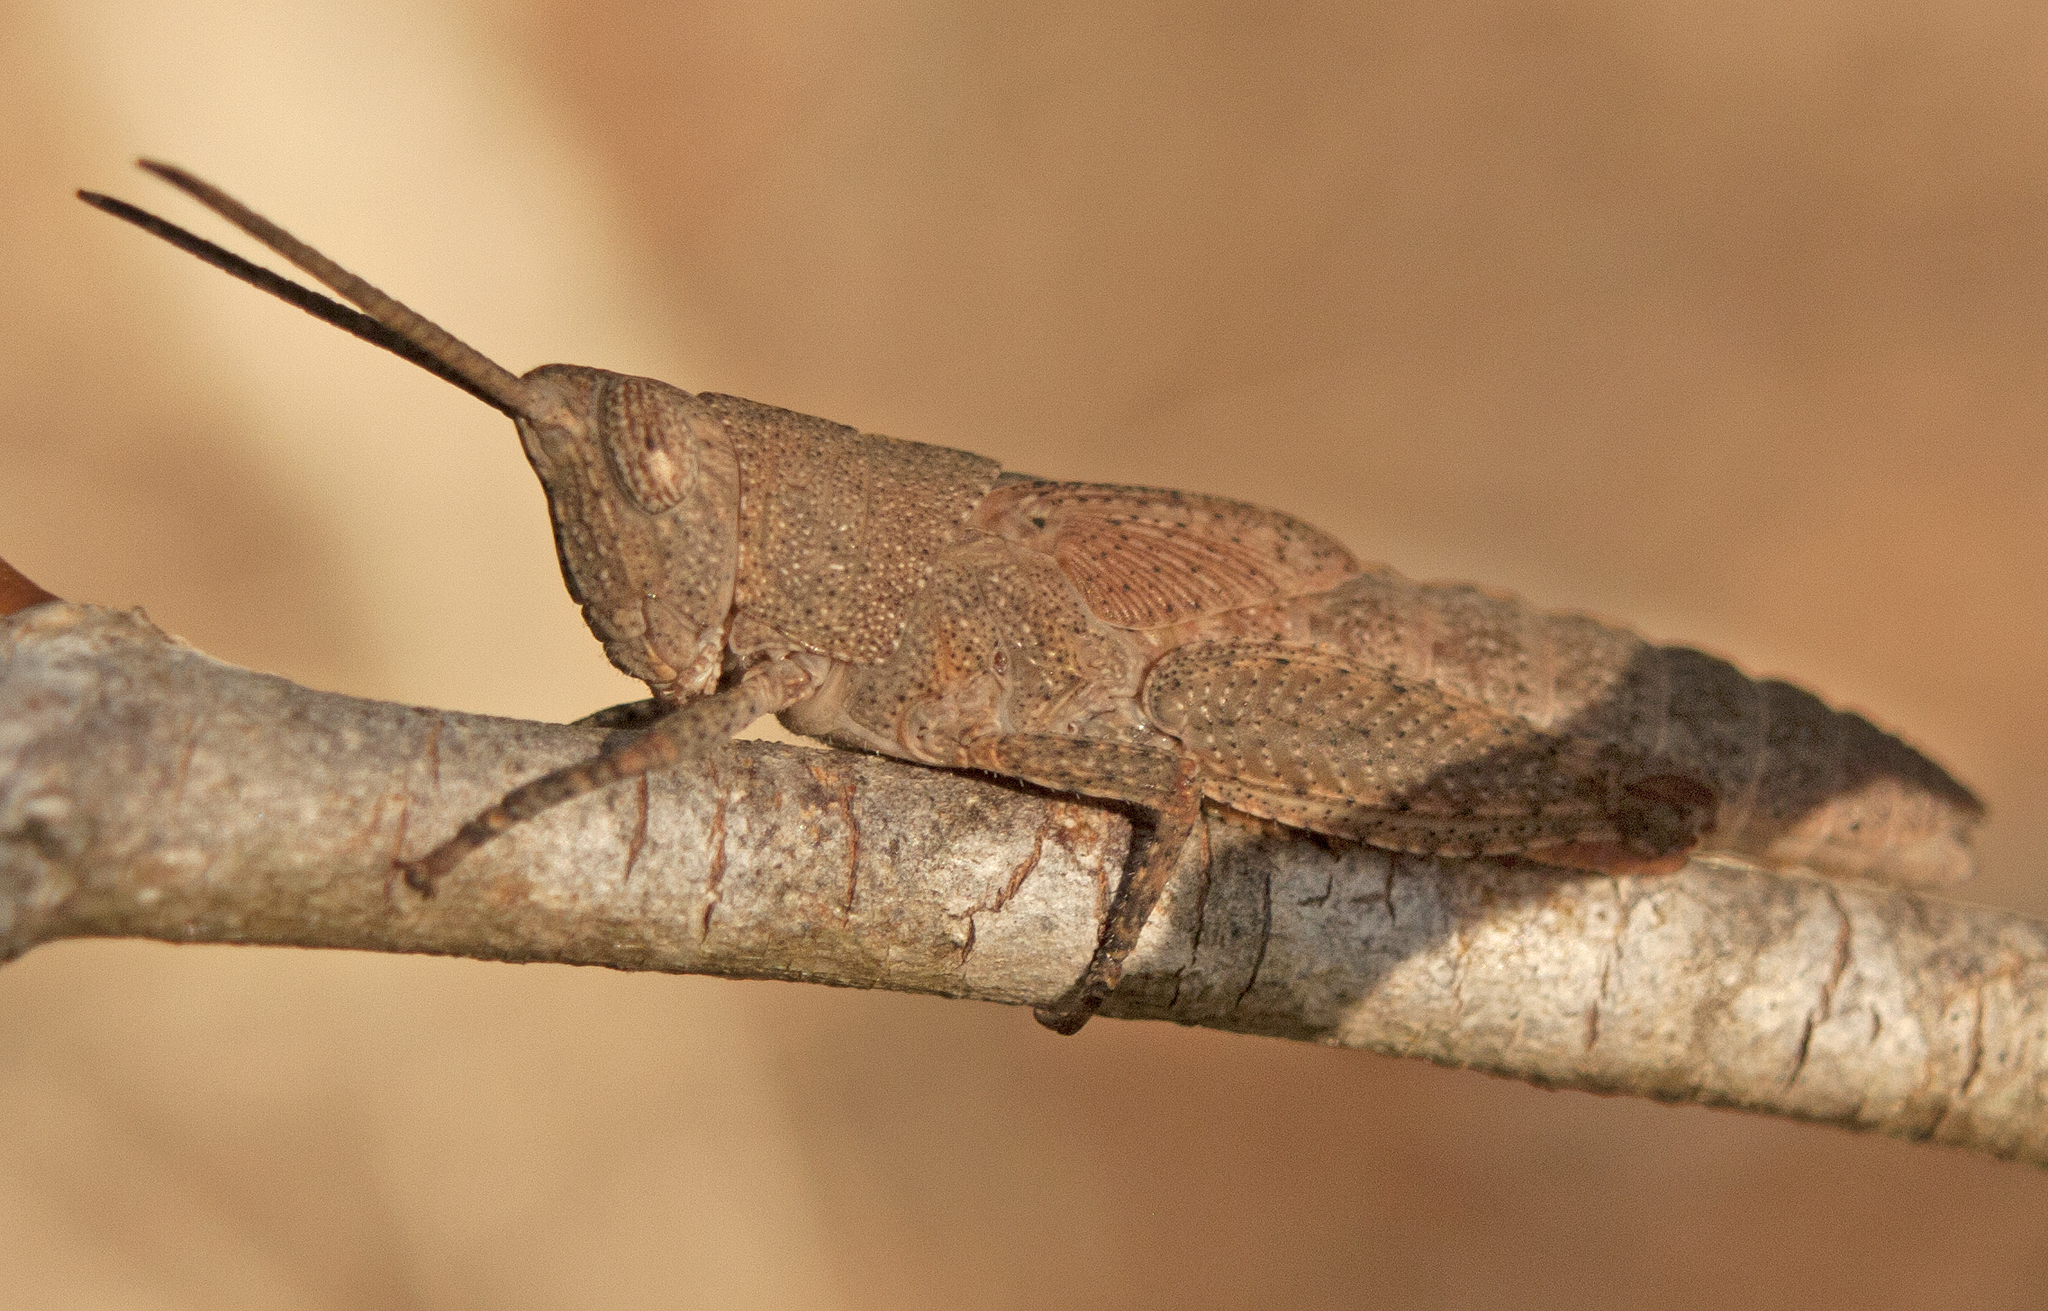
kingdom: Animalia
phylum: Arthropoda
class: Insecta
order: Orthoptera
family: Acrididae
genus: Goniaea
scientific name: Goniaea vocans
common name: Slender gumleaf grasshopper
